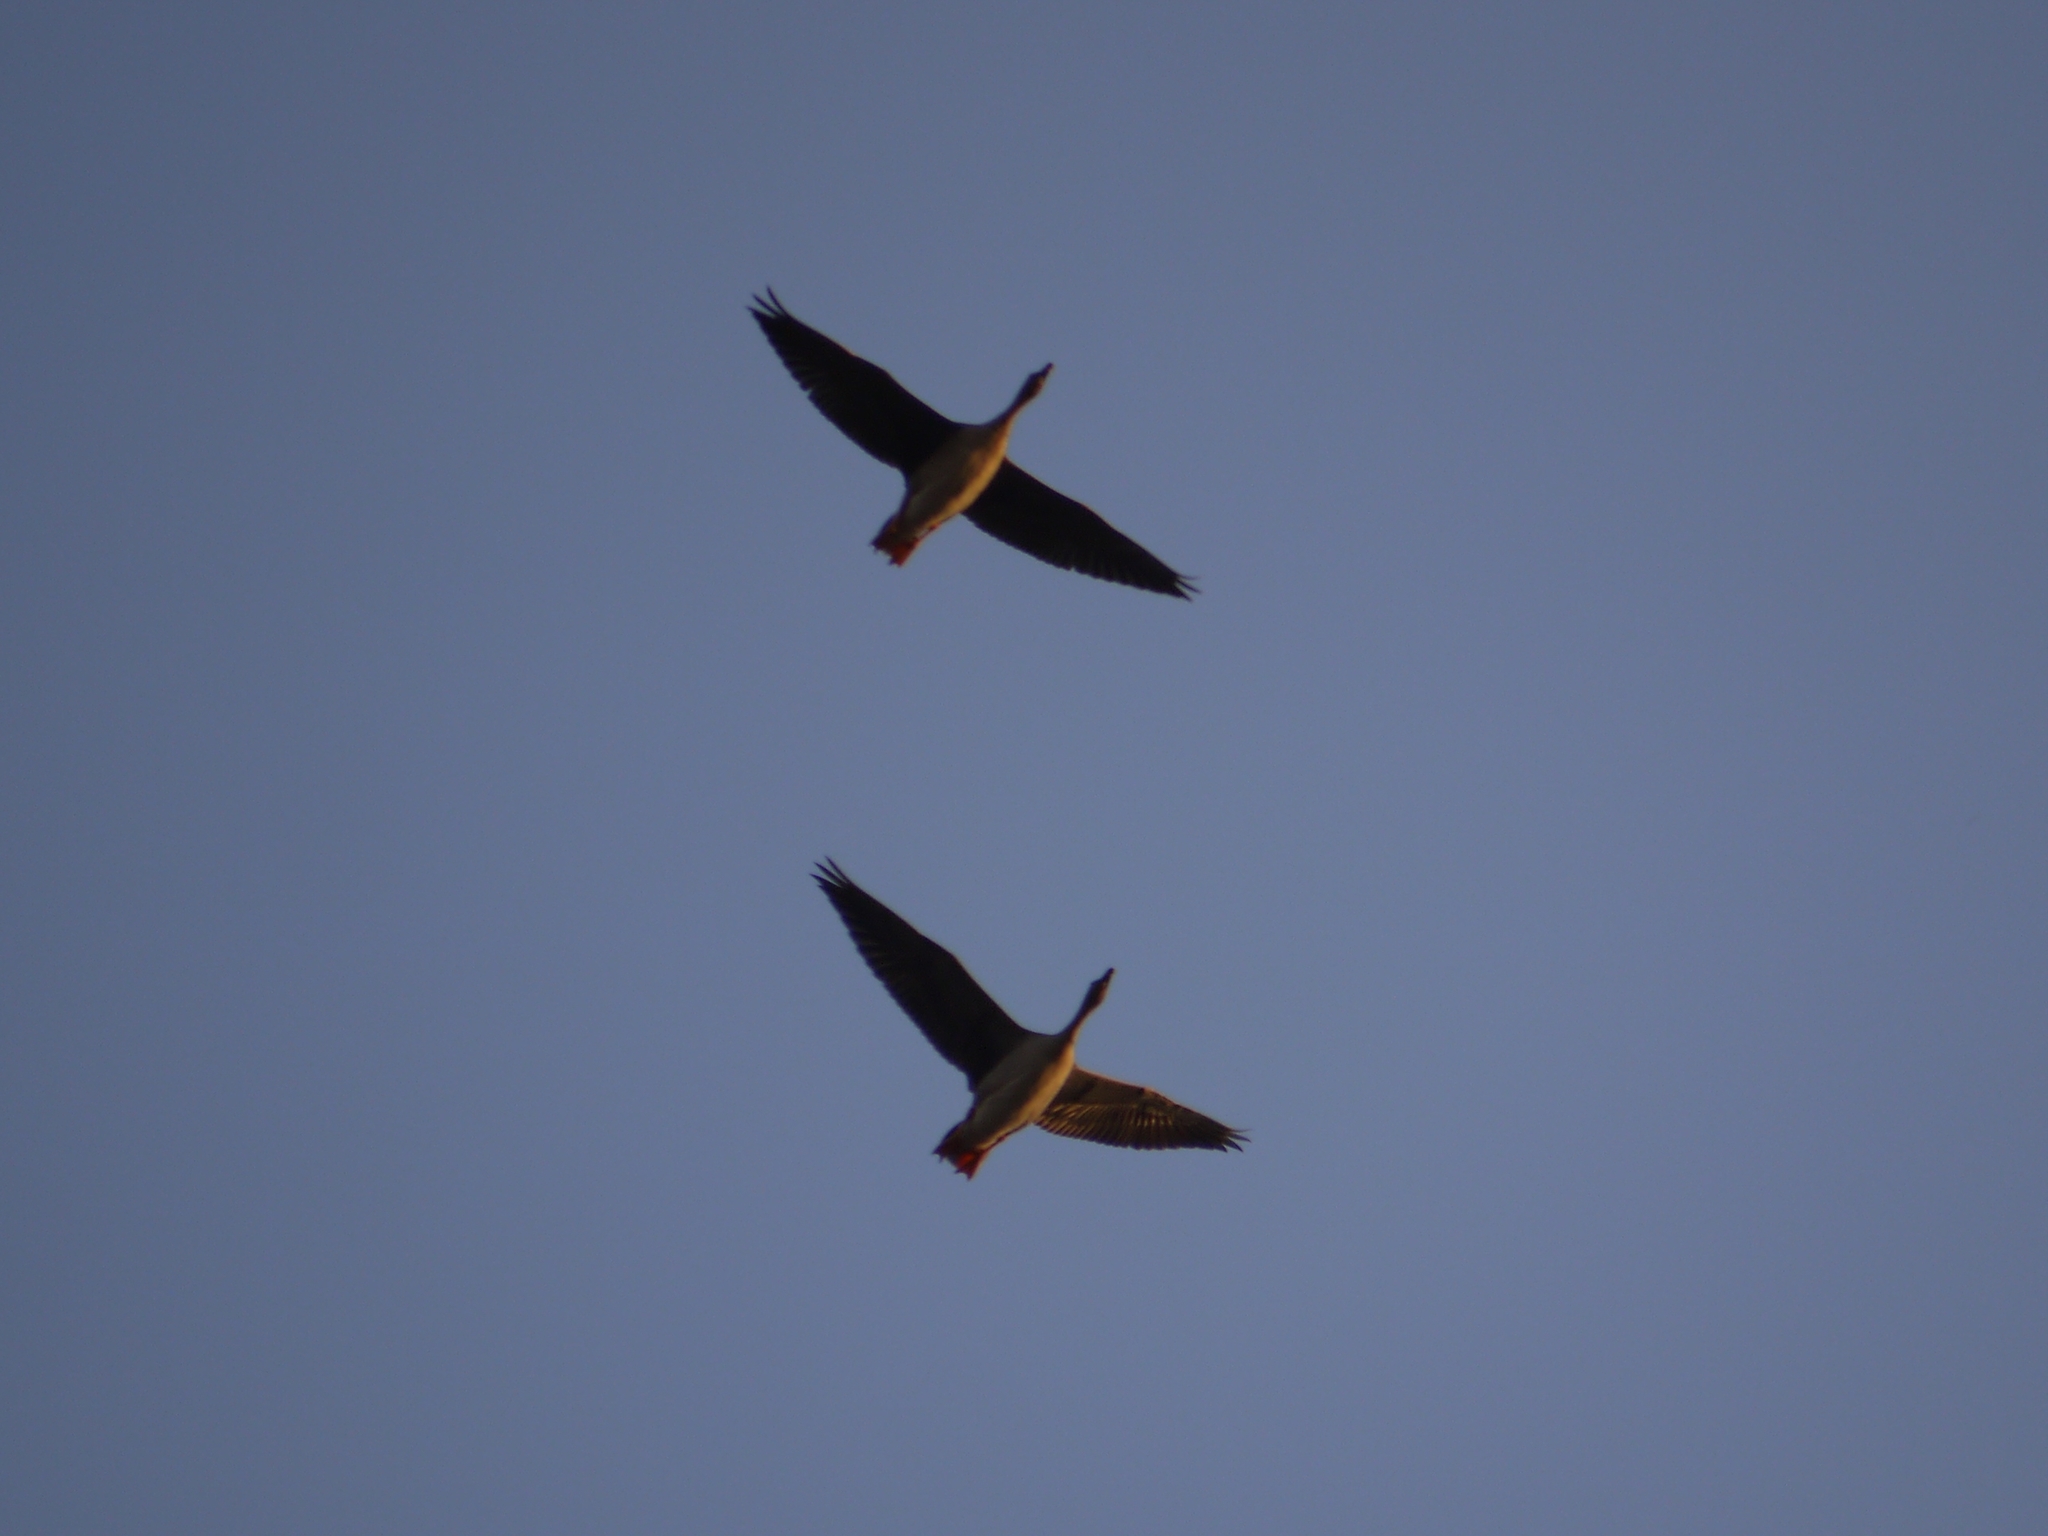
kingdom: Animalia
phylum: Chordata
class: Aves
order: Anseriformes
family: Anatidae
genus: Anser
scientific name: Anser serrirostris
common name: Tundra bean goose
